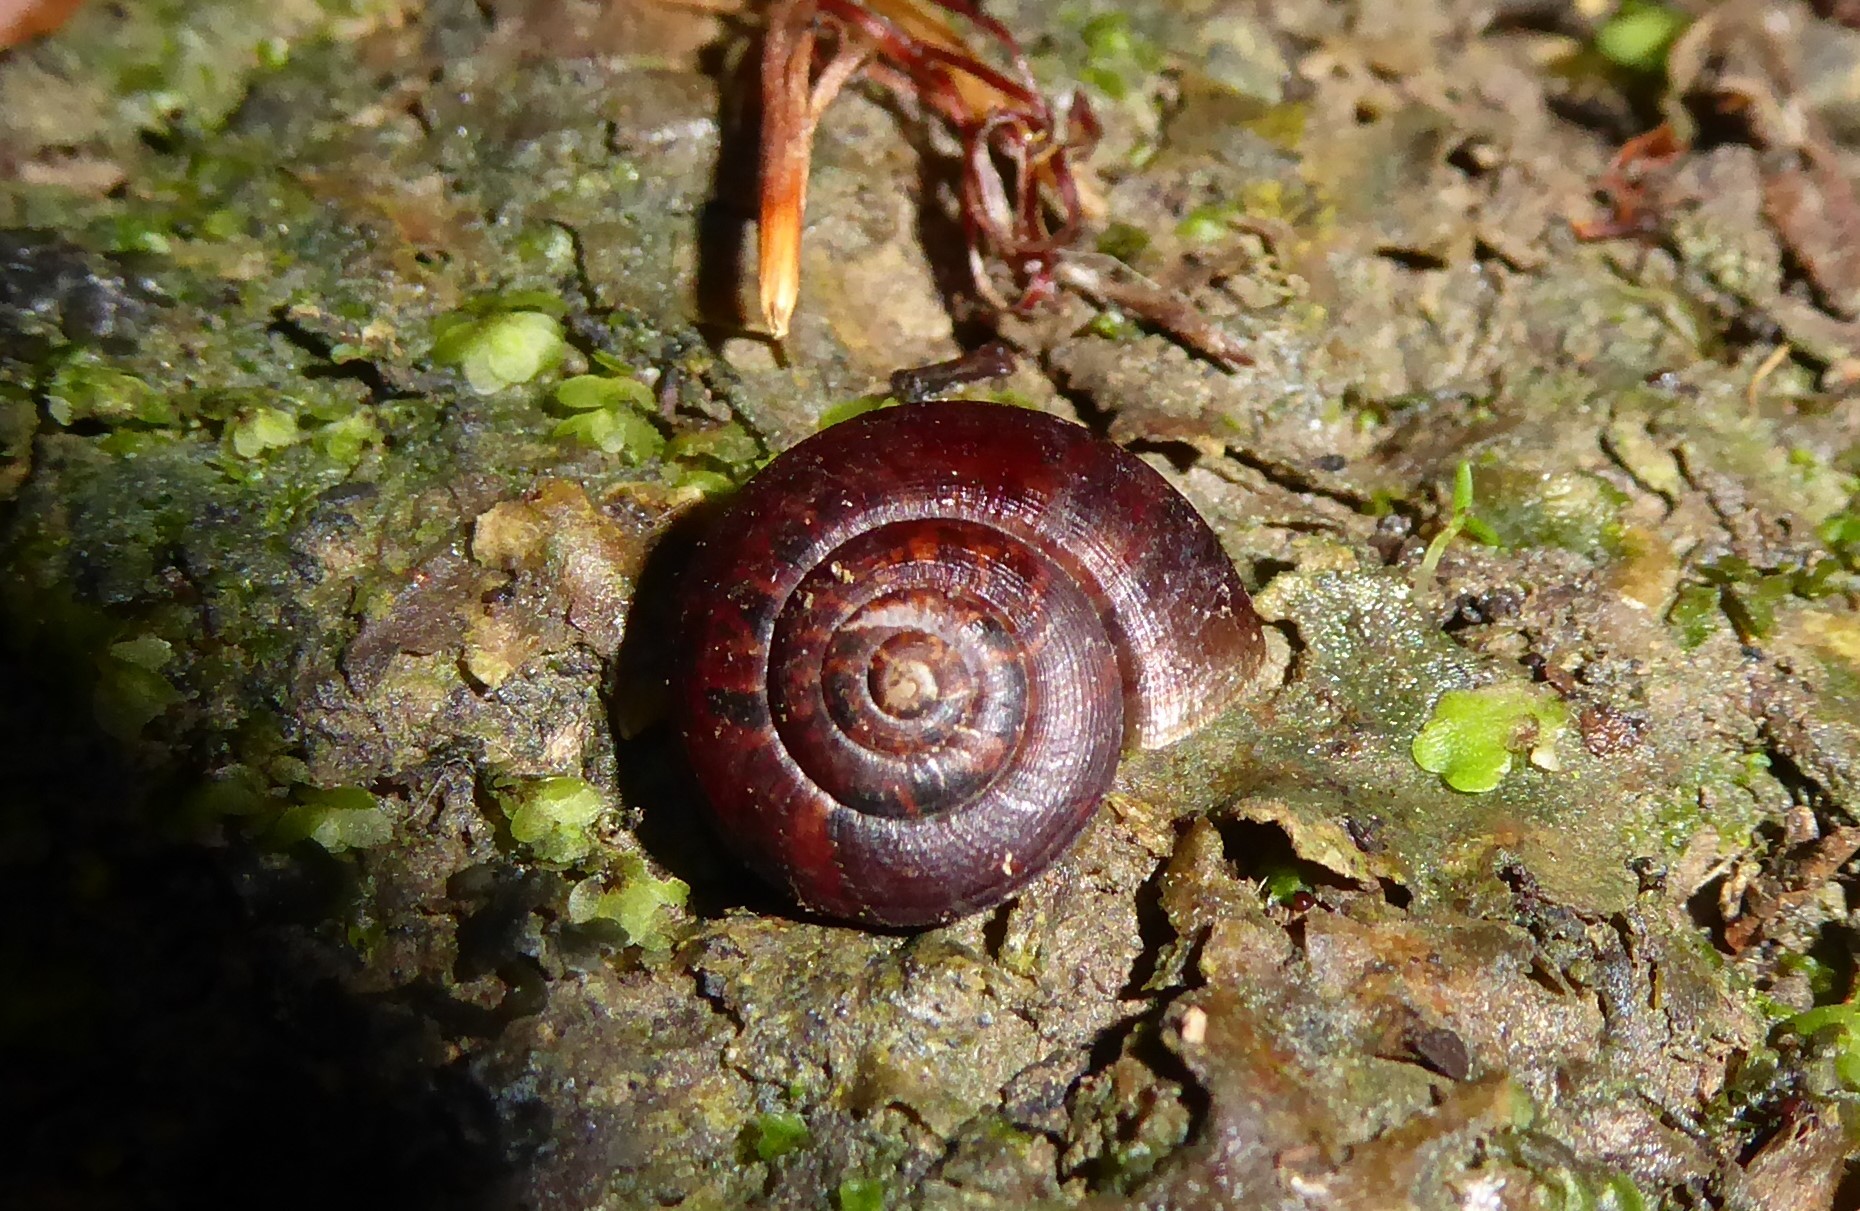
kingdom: Animalia
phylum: Mollusca
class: Gastropoda
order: Stylommatophora
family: Charopidae
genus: Thalassohelix
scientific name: Thalassohelix igniflua
